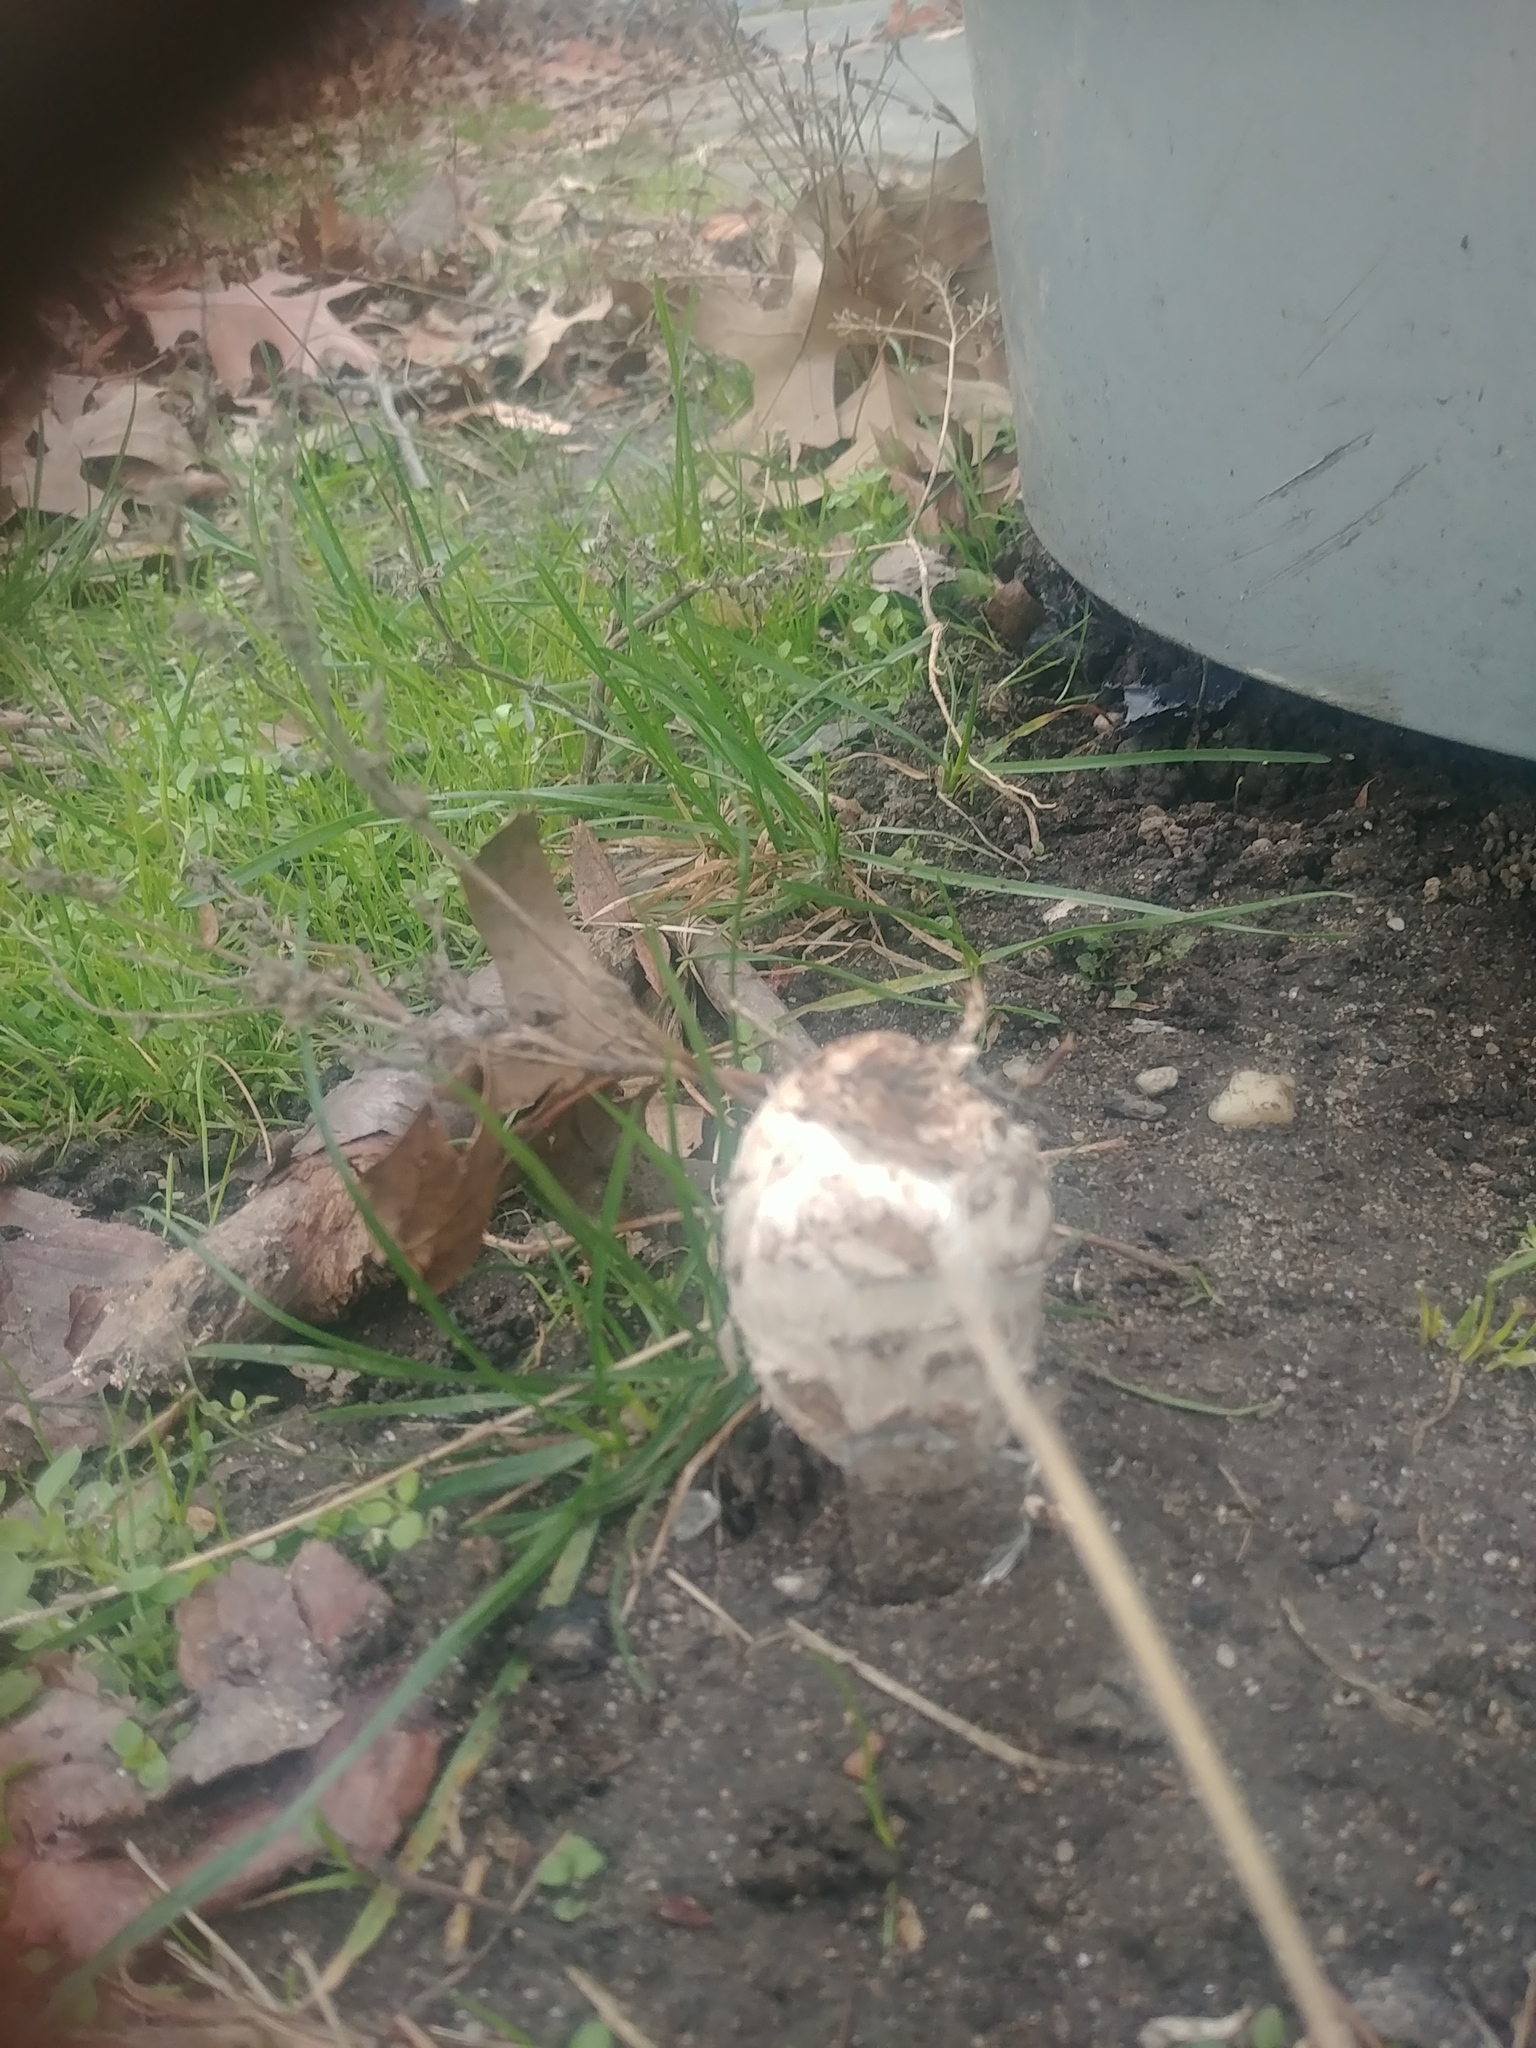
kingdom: Fungi
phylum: Basidiomycota
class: Agaricomycetes
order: Agaricales
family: Agaricaceae
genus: Coprinus
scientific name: Coprinus comatus
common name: Lawyer's wig
